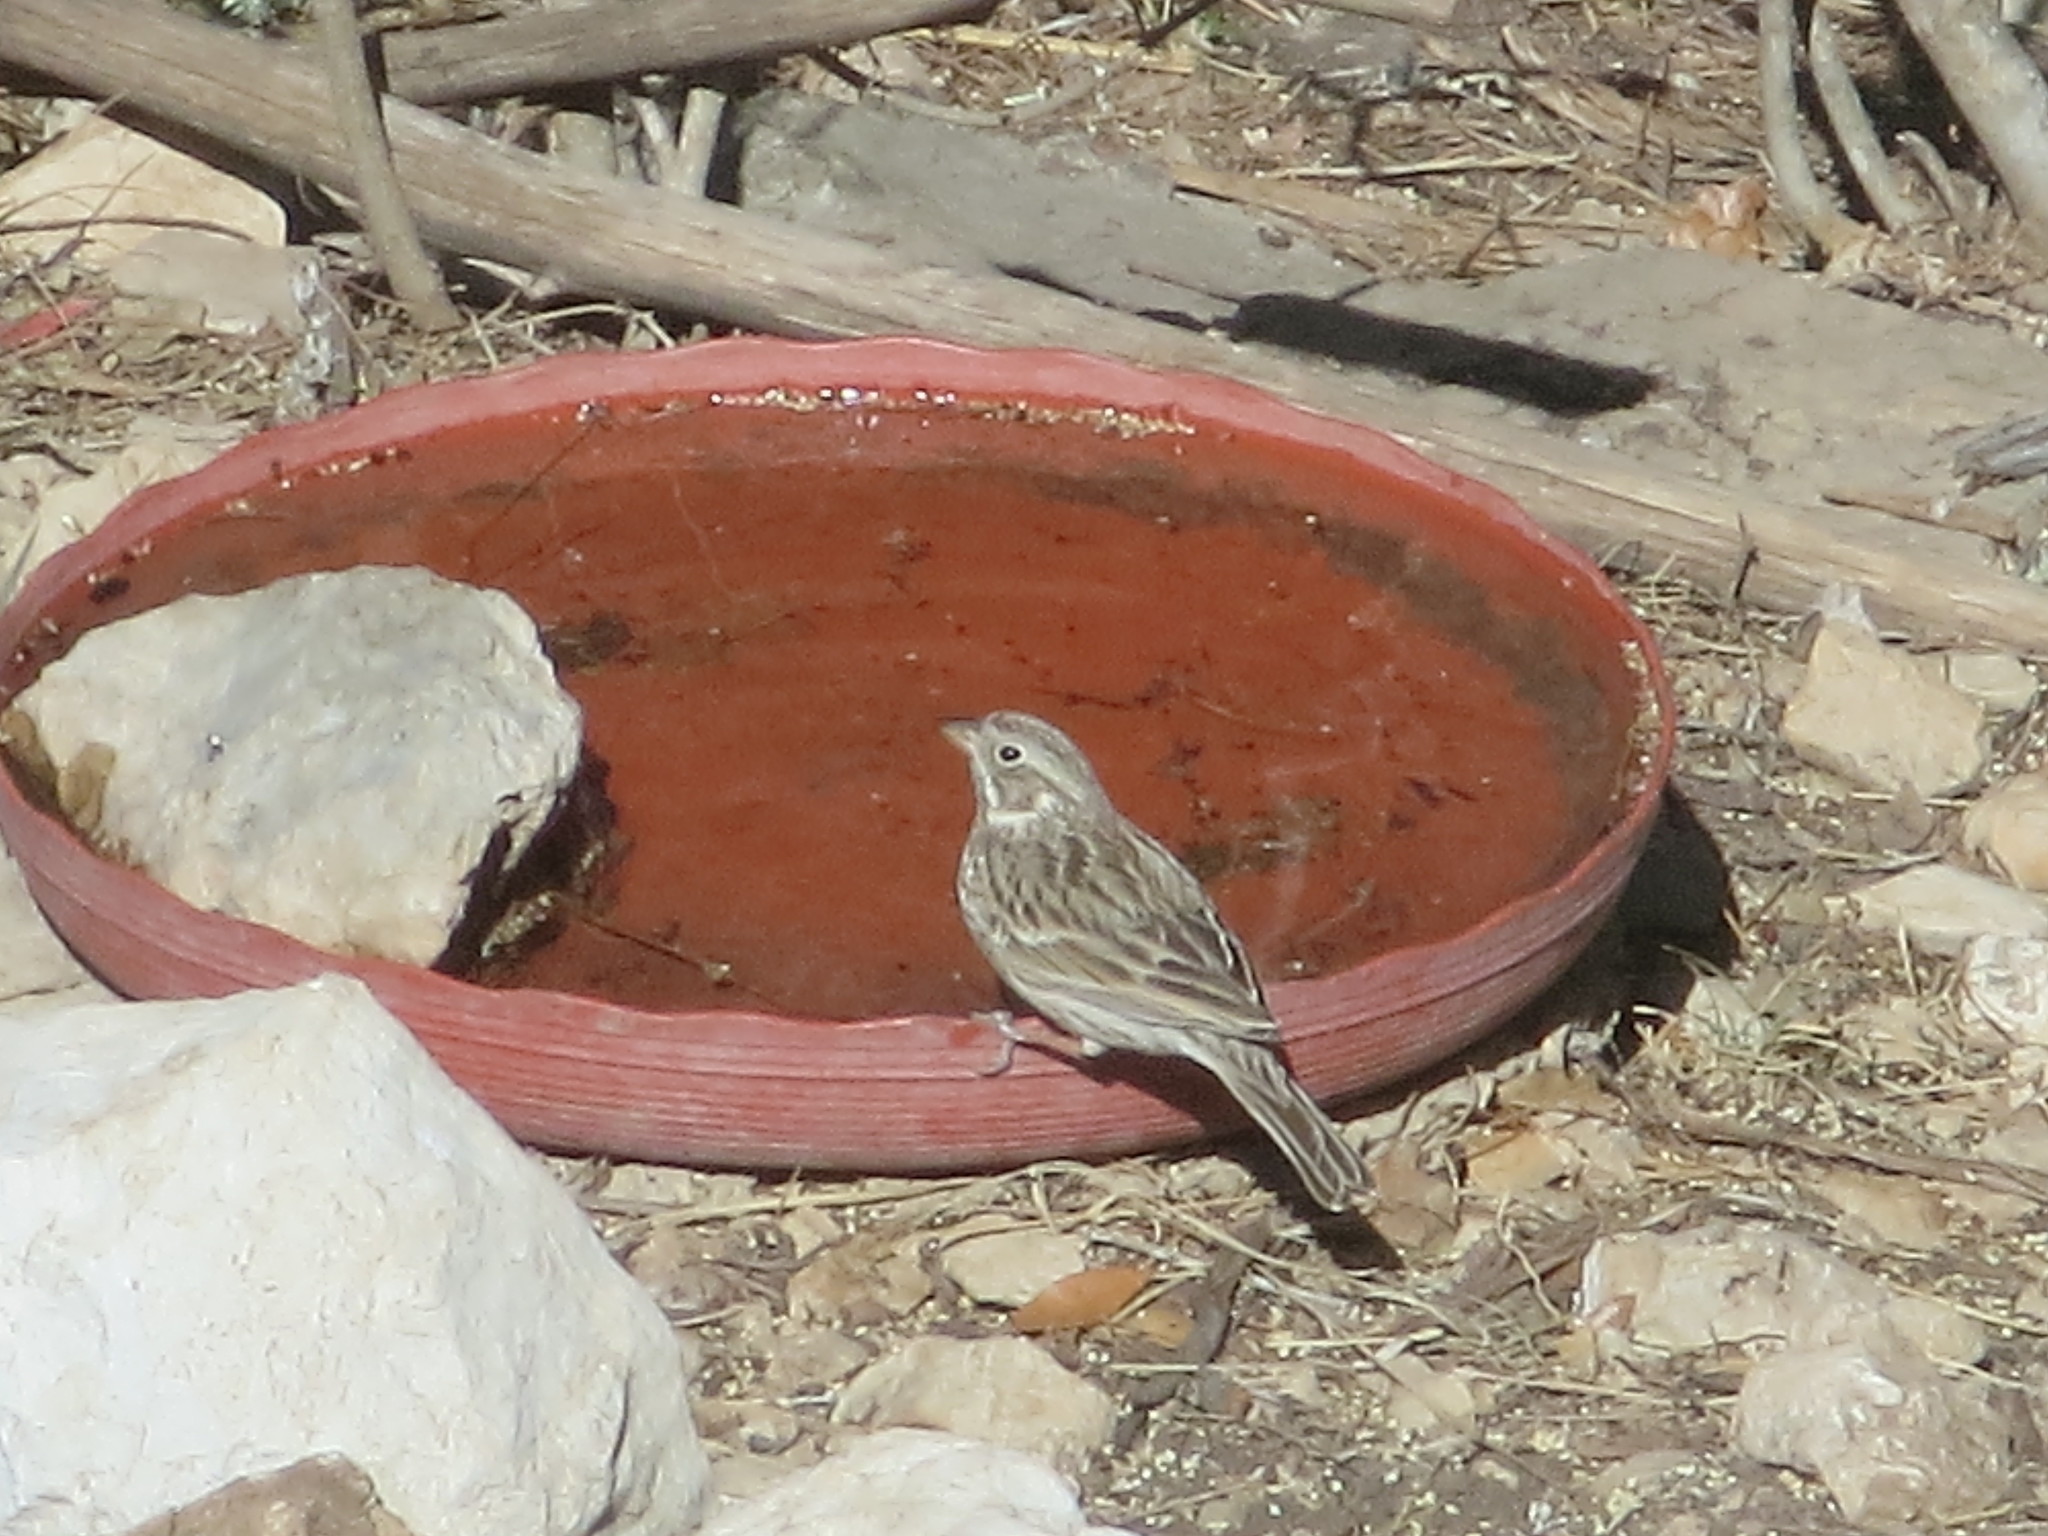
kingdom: Animalia
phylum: Chordata
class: Aves
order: Passeriformes
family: Passerellidae
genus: Pooecetes
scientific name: Pooecetes gramineus
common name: Vesper sparrow
